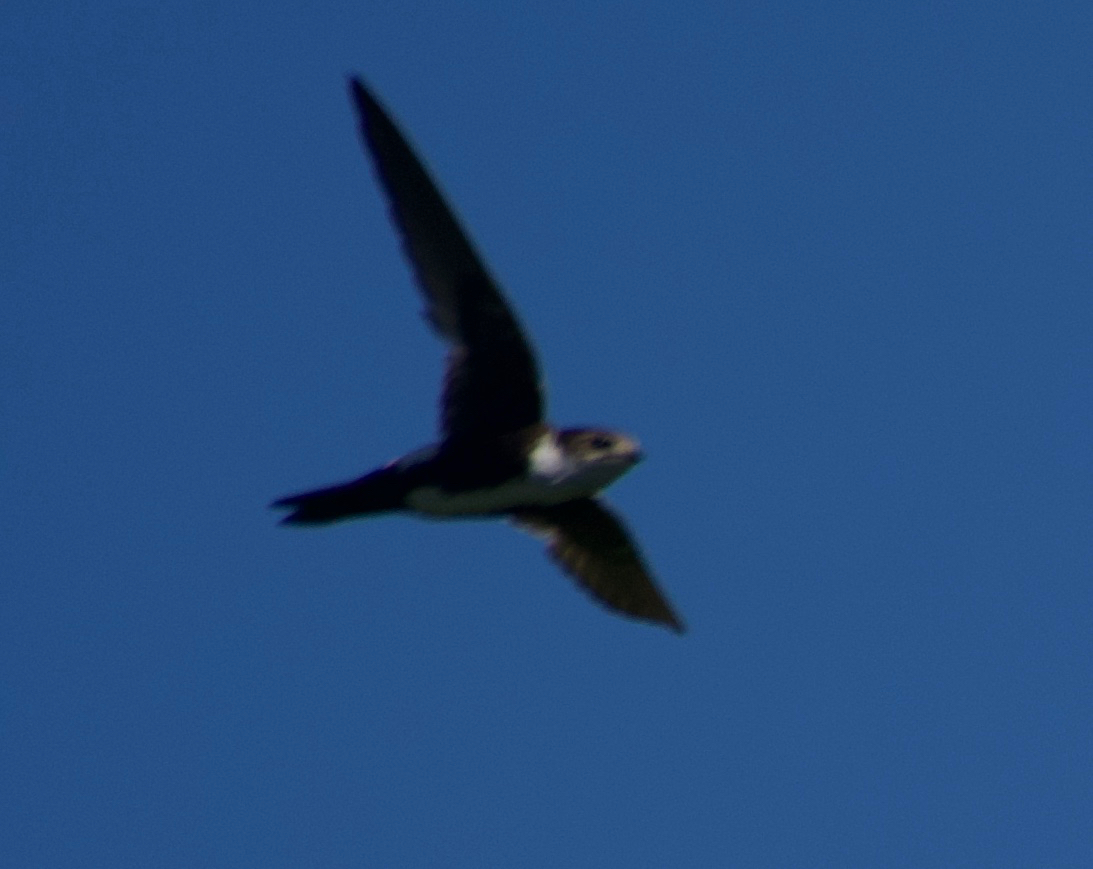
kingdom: Animalia
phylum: Chordata
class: Aves
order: Apodiformes
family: Apodidae
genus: Aeronautes
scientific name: Aeronautes saxatalis
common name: White-throated swift
